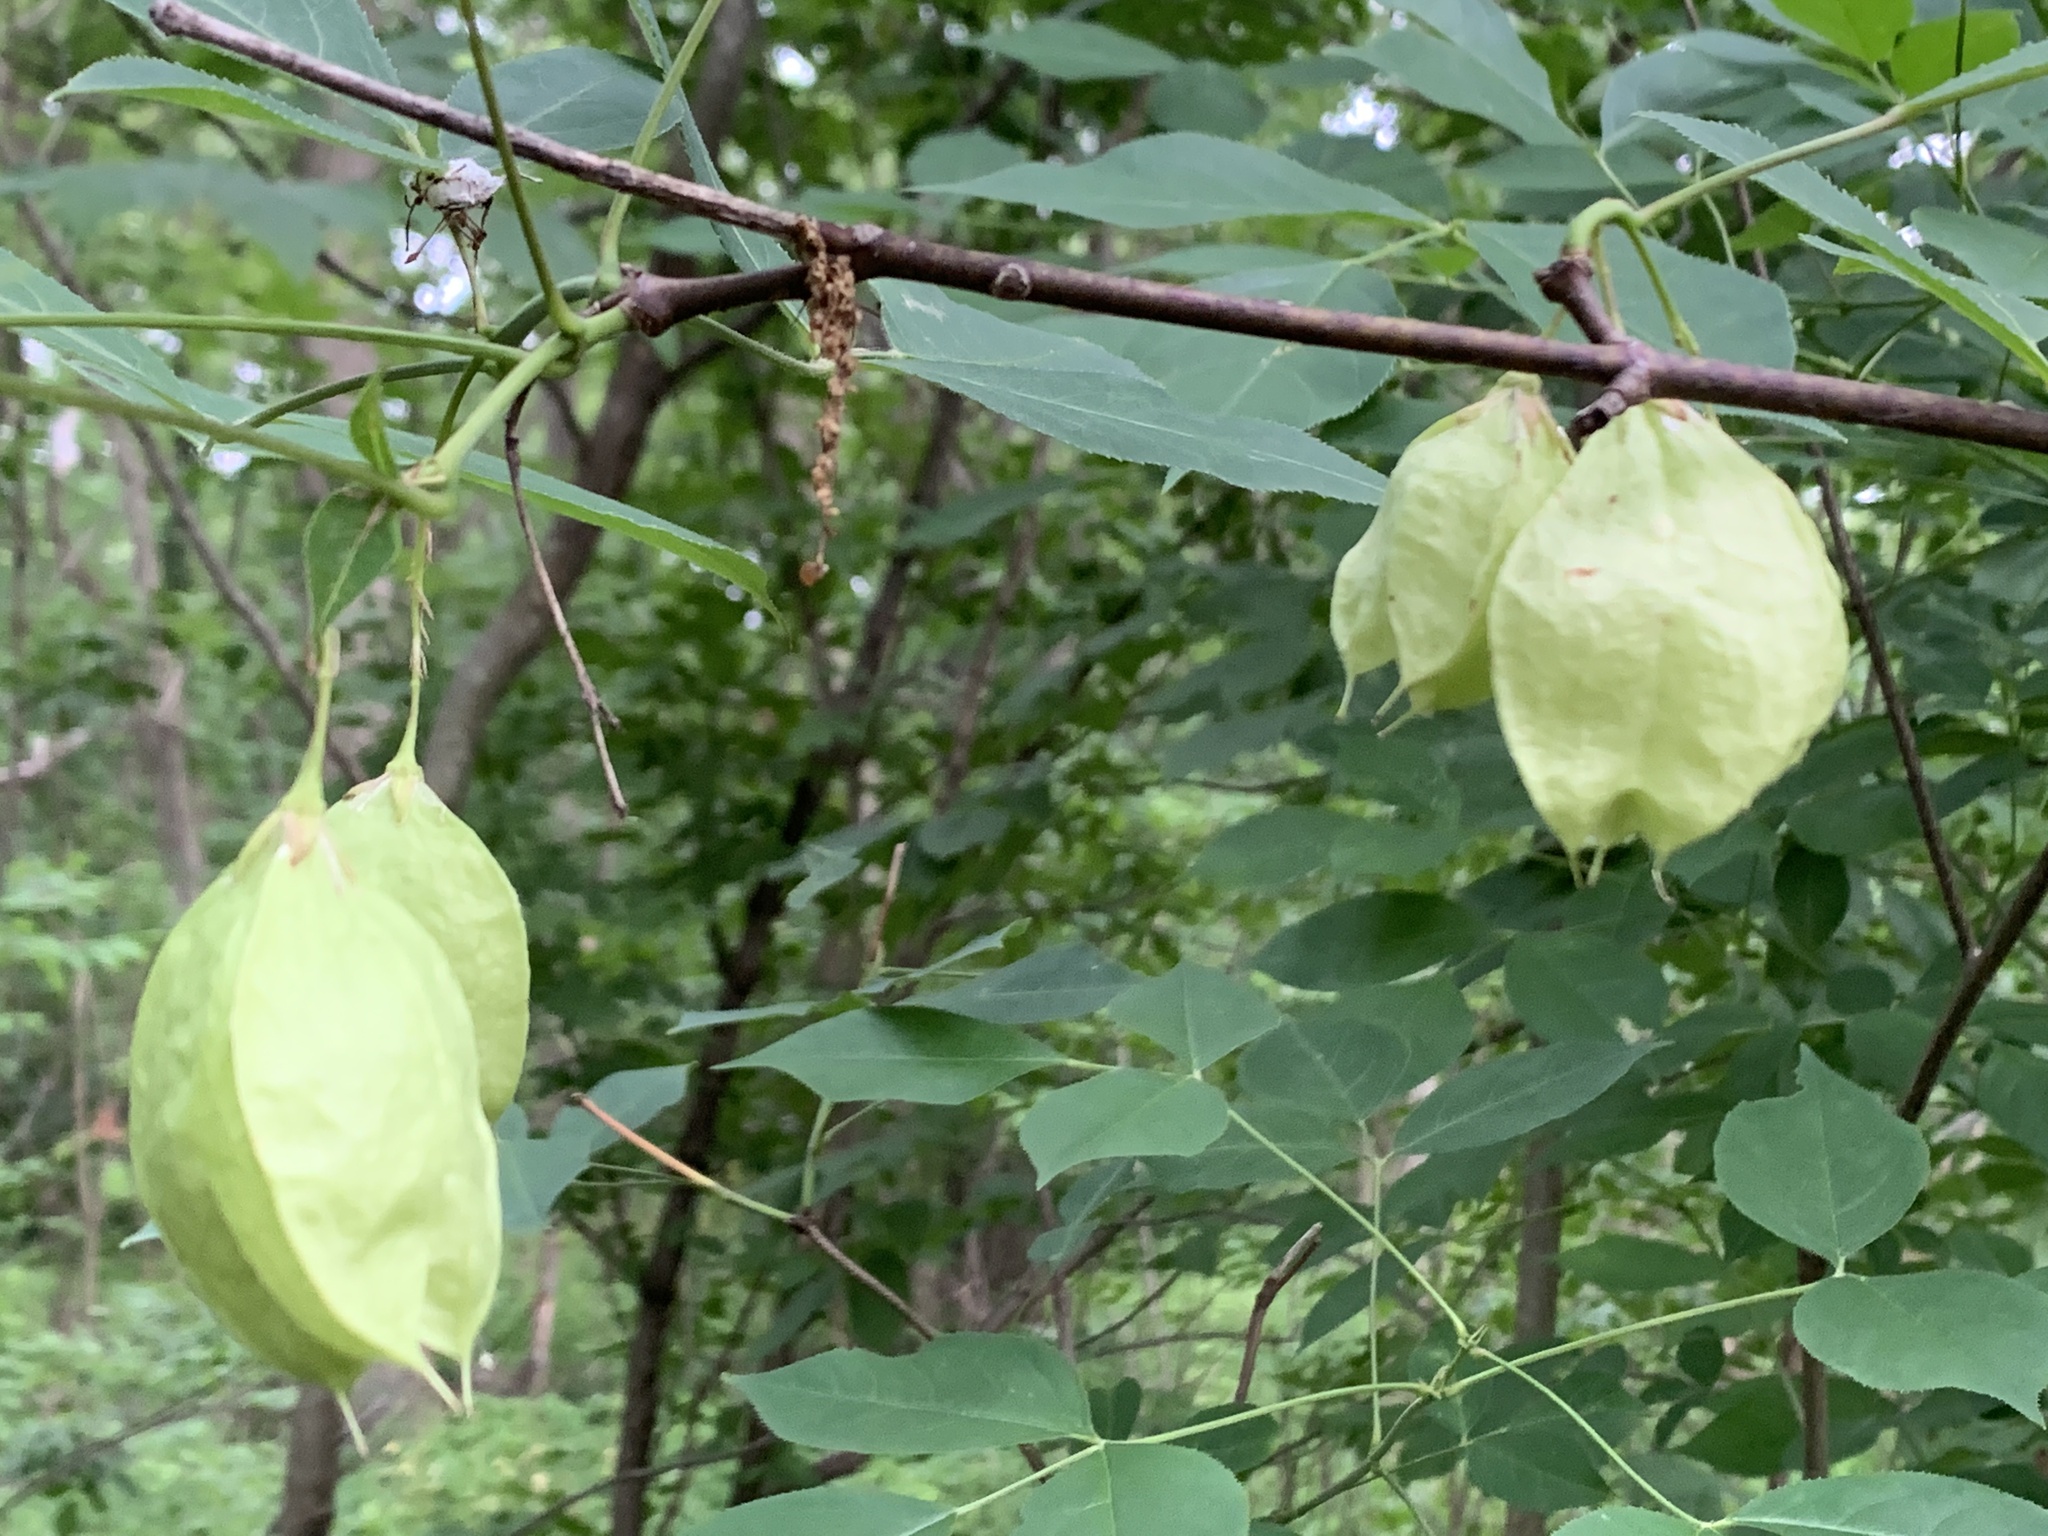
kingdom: Plantae
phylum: Tracheophyta
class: Magnoliopsida
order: Crossosomatales
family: Staphyleaceae
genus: Staphylea
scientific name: Staphylea trifolia
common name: American bladdernut
